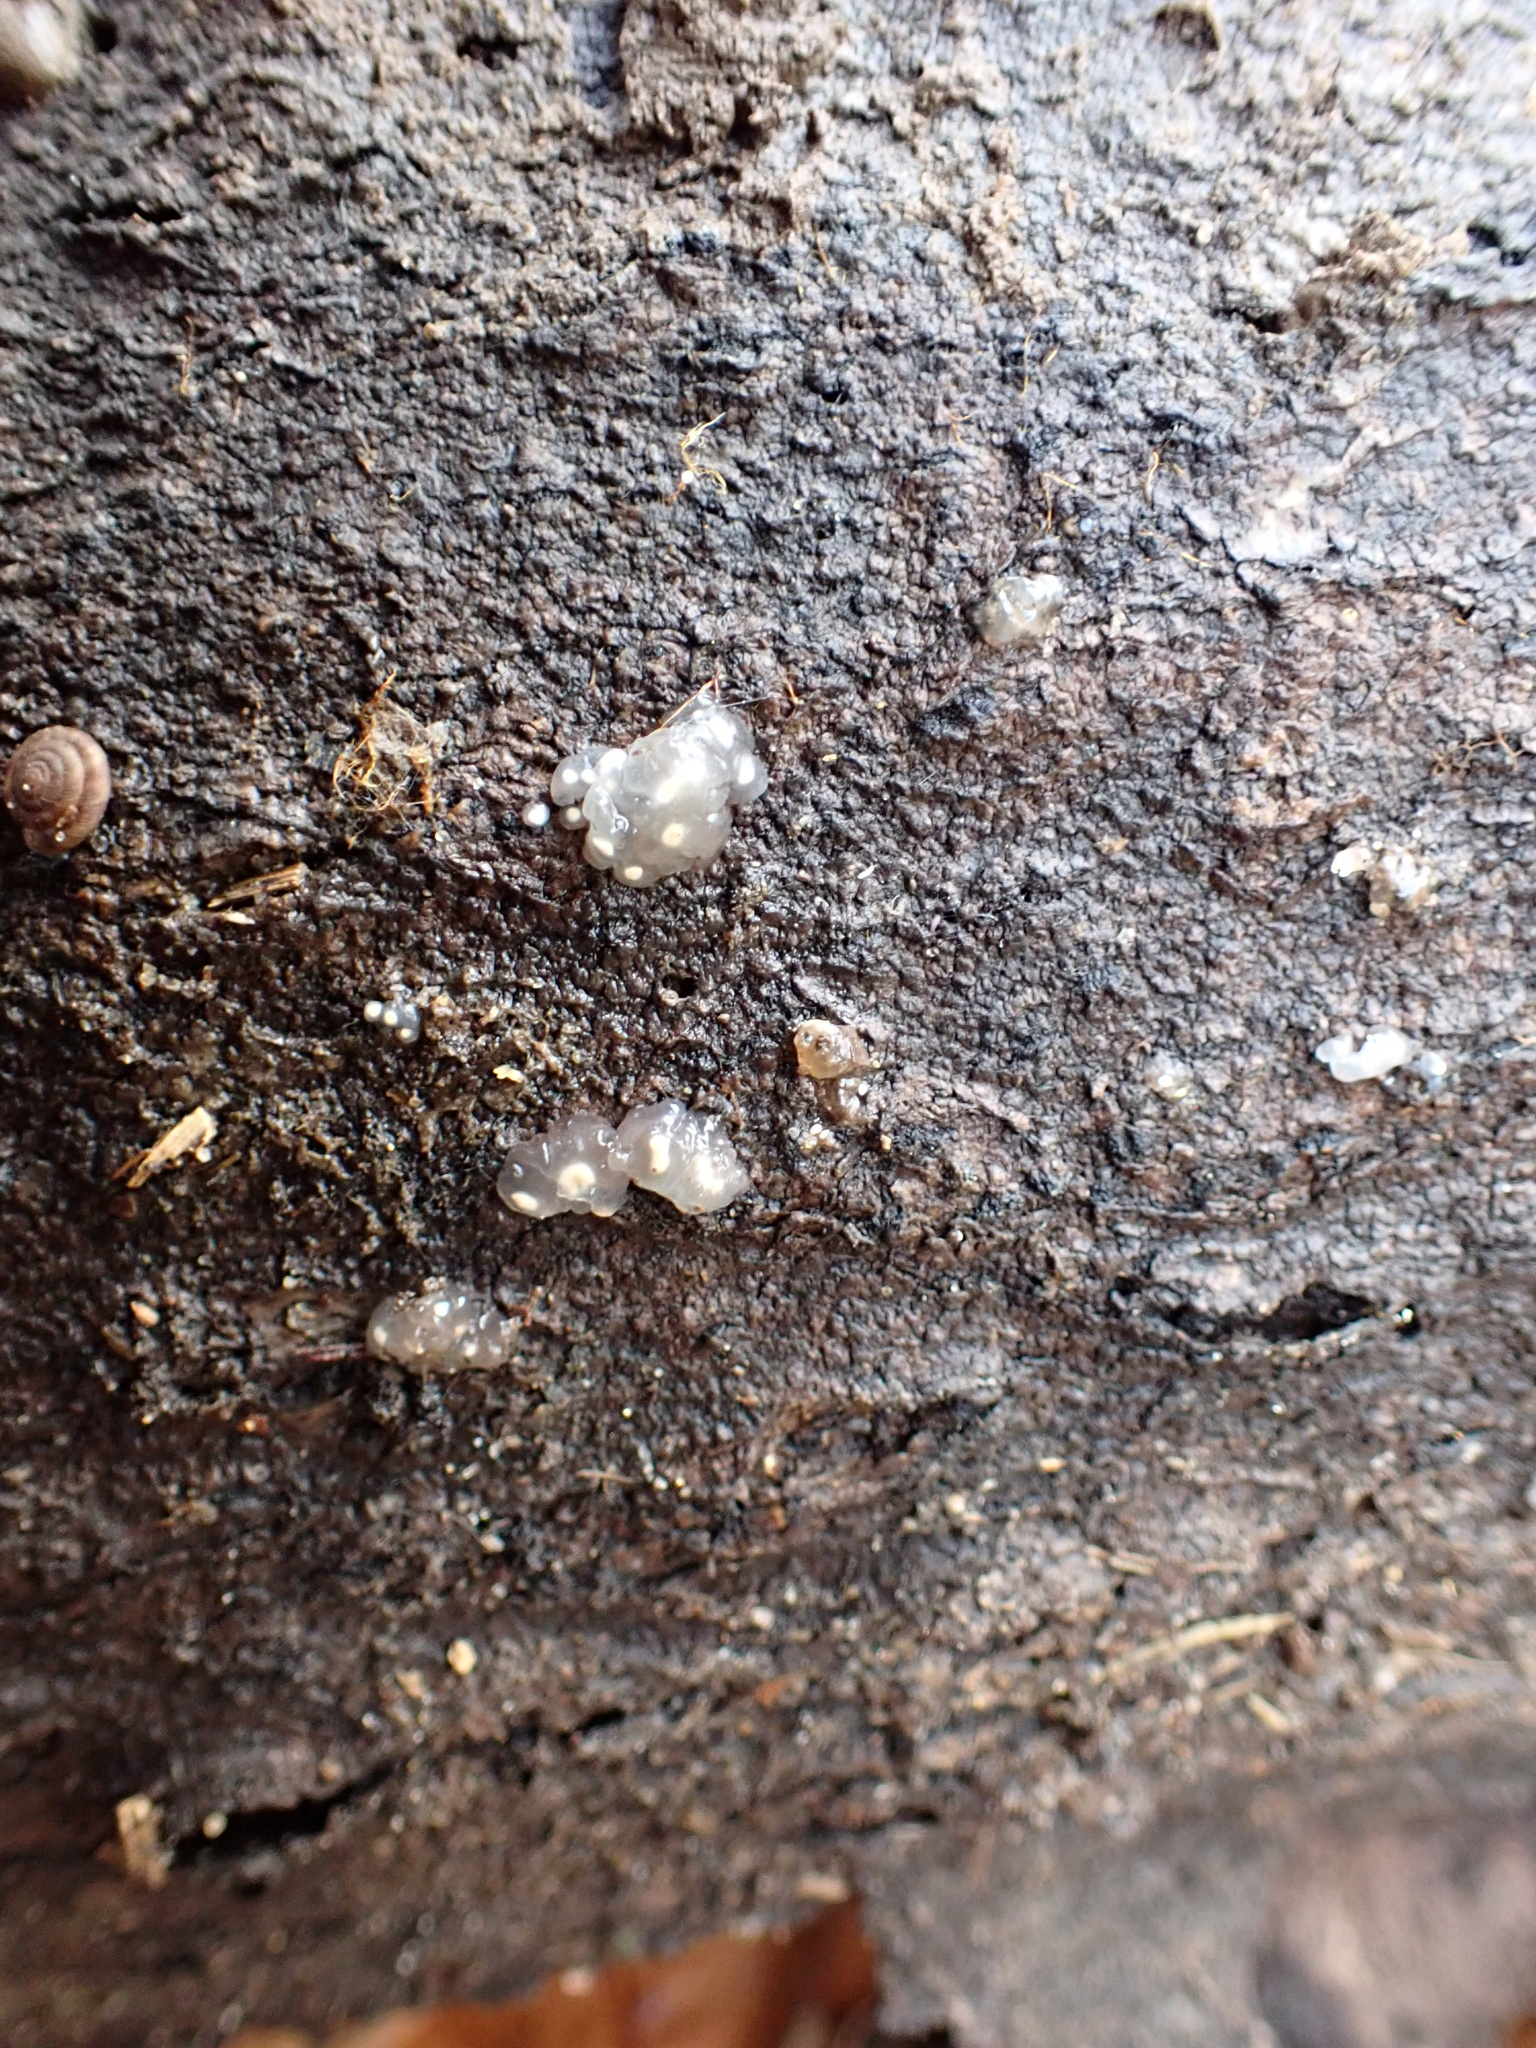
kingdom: Fungi
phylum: Basidiomycota
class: Agaricomycetes
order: Auriculariales
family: Hyaloriaceae
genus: Myxarium
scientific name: Myxarium nucleatum
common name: Crystal brain fungus
